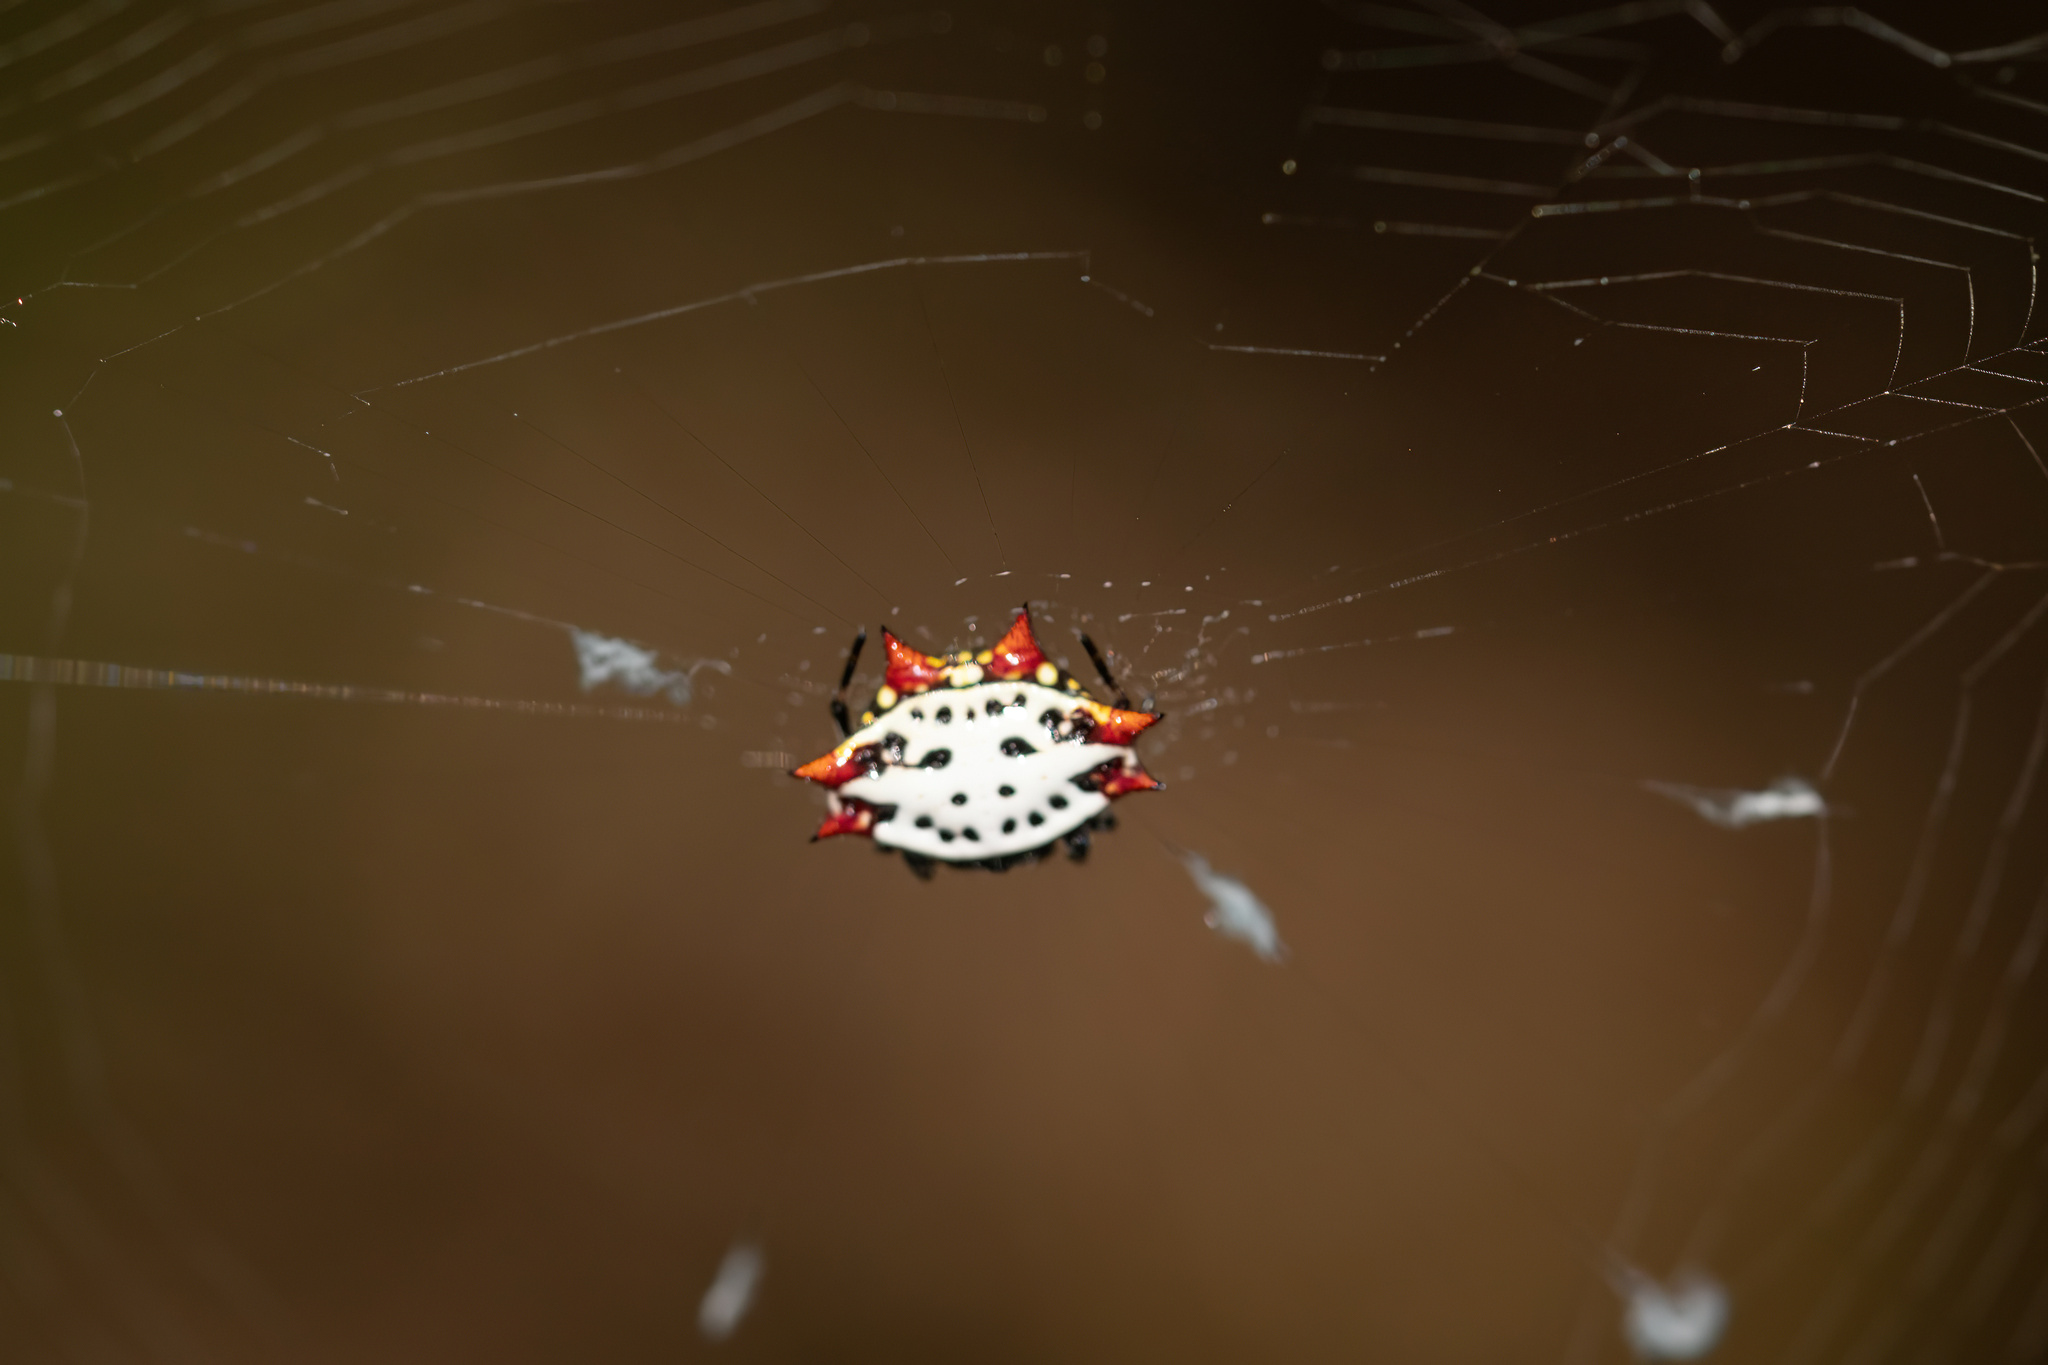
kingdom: Animalia
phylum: Arthropoda
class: Arachnida
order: Araneae
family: Araneidae
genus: Gasteracantha
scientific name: Gasteracantha cancriformis
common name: Orb weavers
